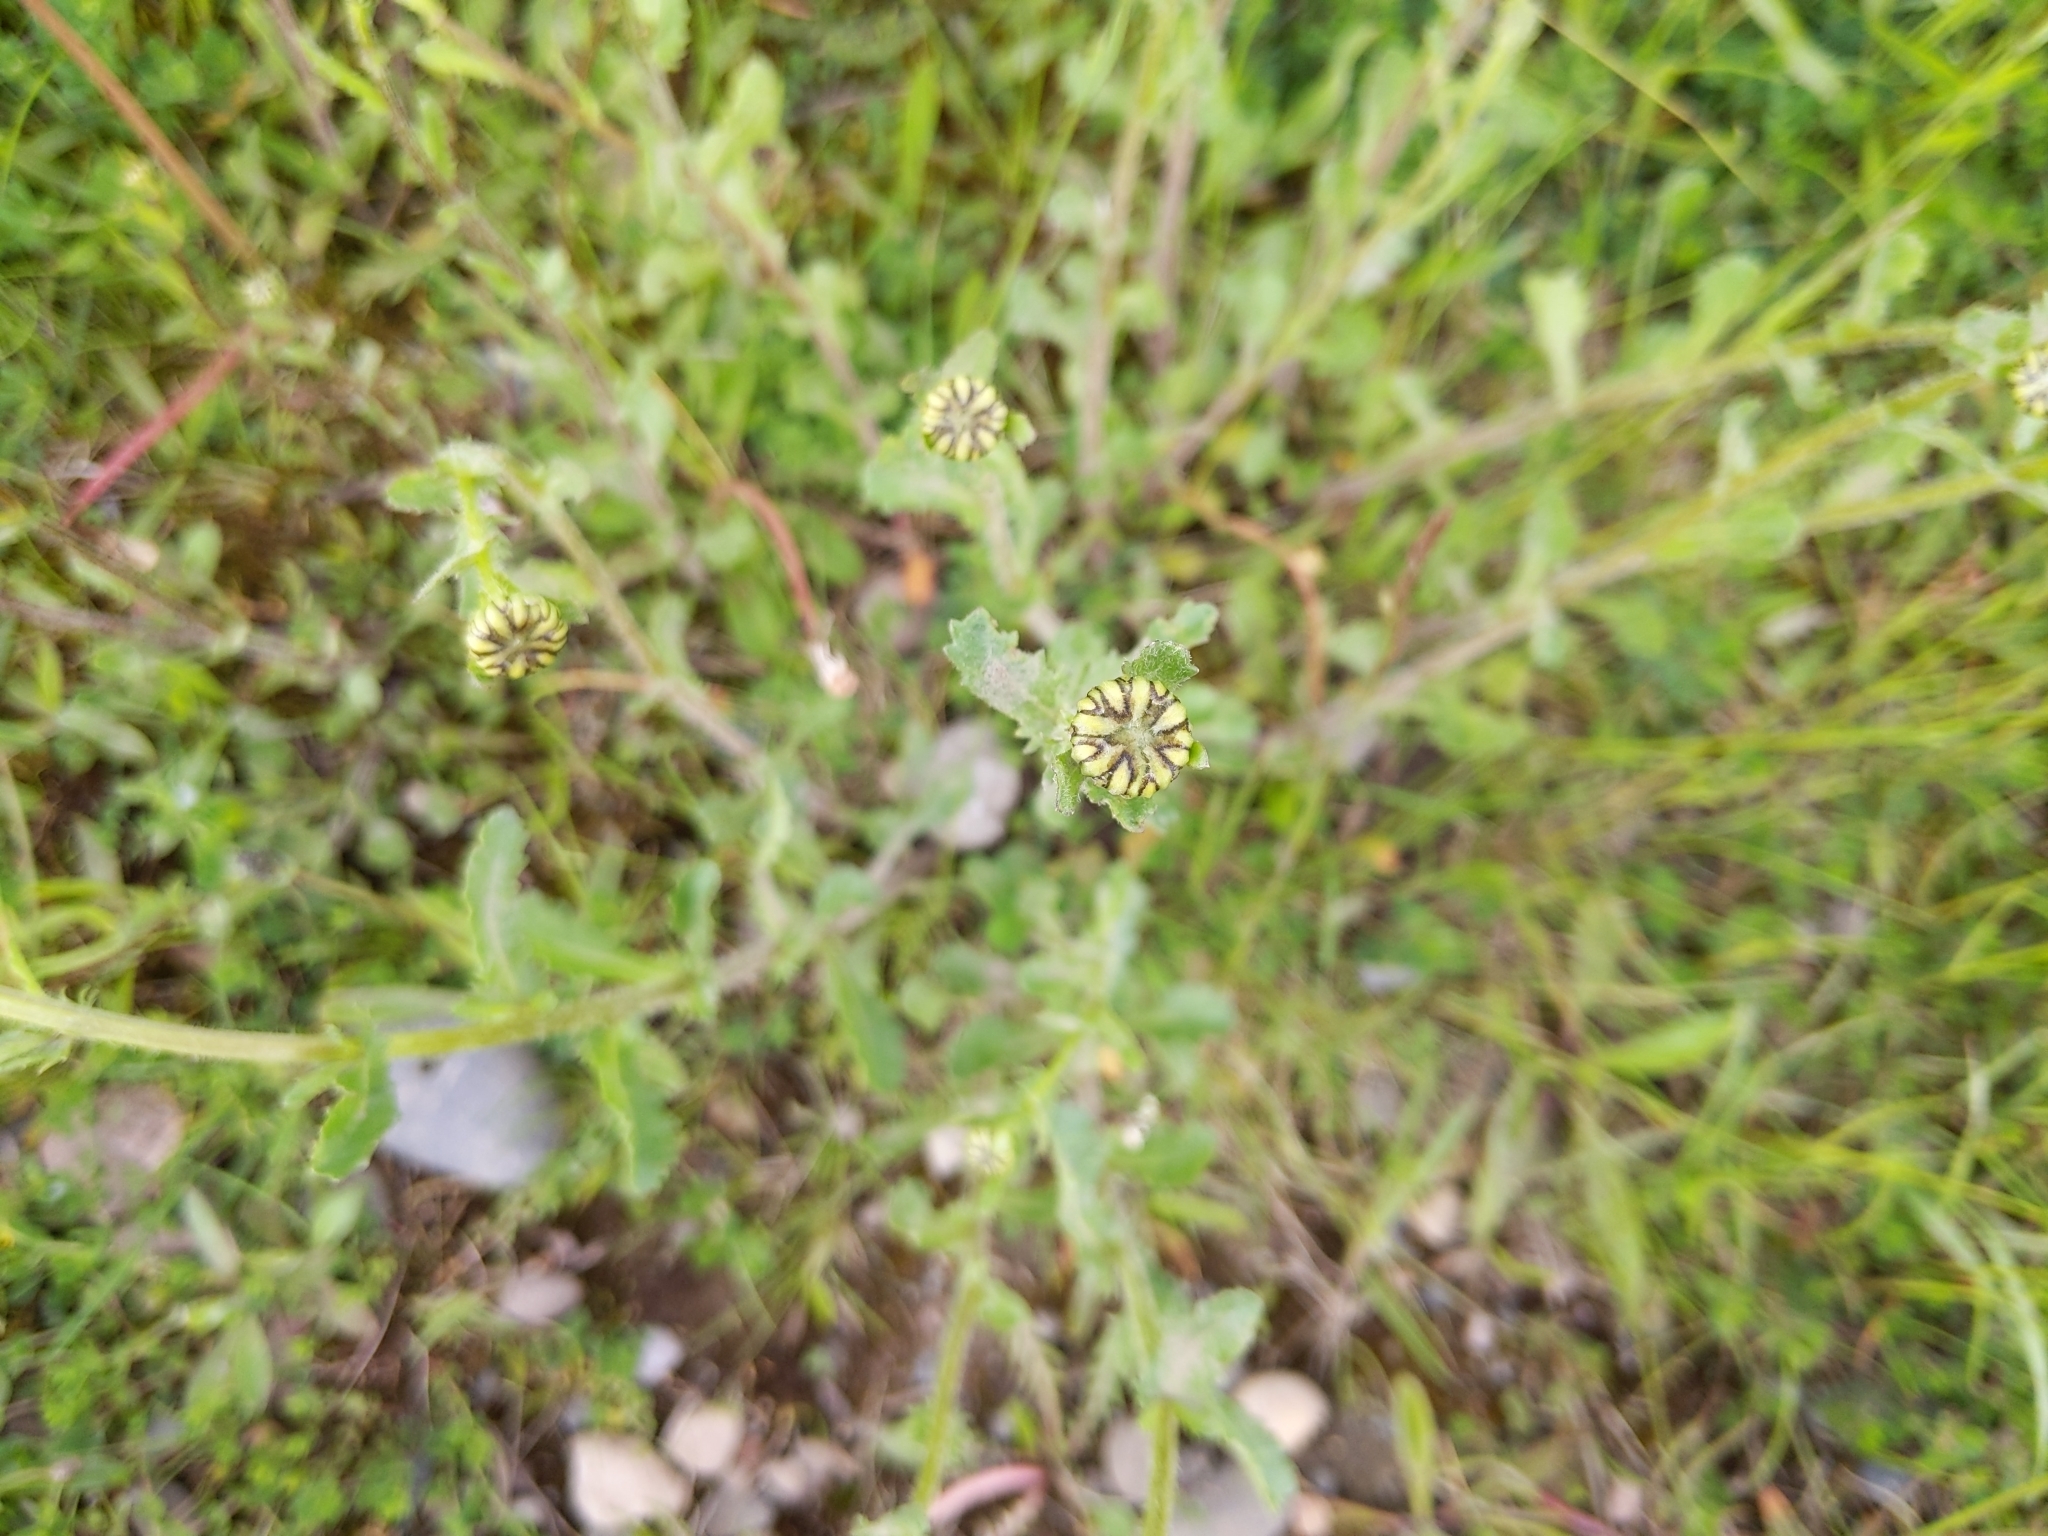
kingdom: Plantae
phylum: Tracheophyta
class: Magnoliopsida
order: Asterales
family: Asteraceae
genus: Leucanthemum
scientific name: Leucanthemum vulgare
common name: Oxeye daisy
